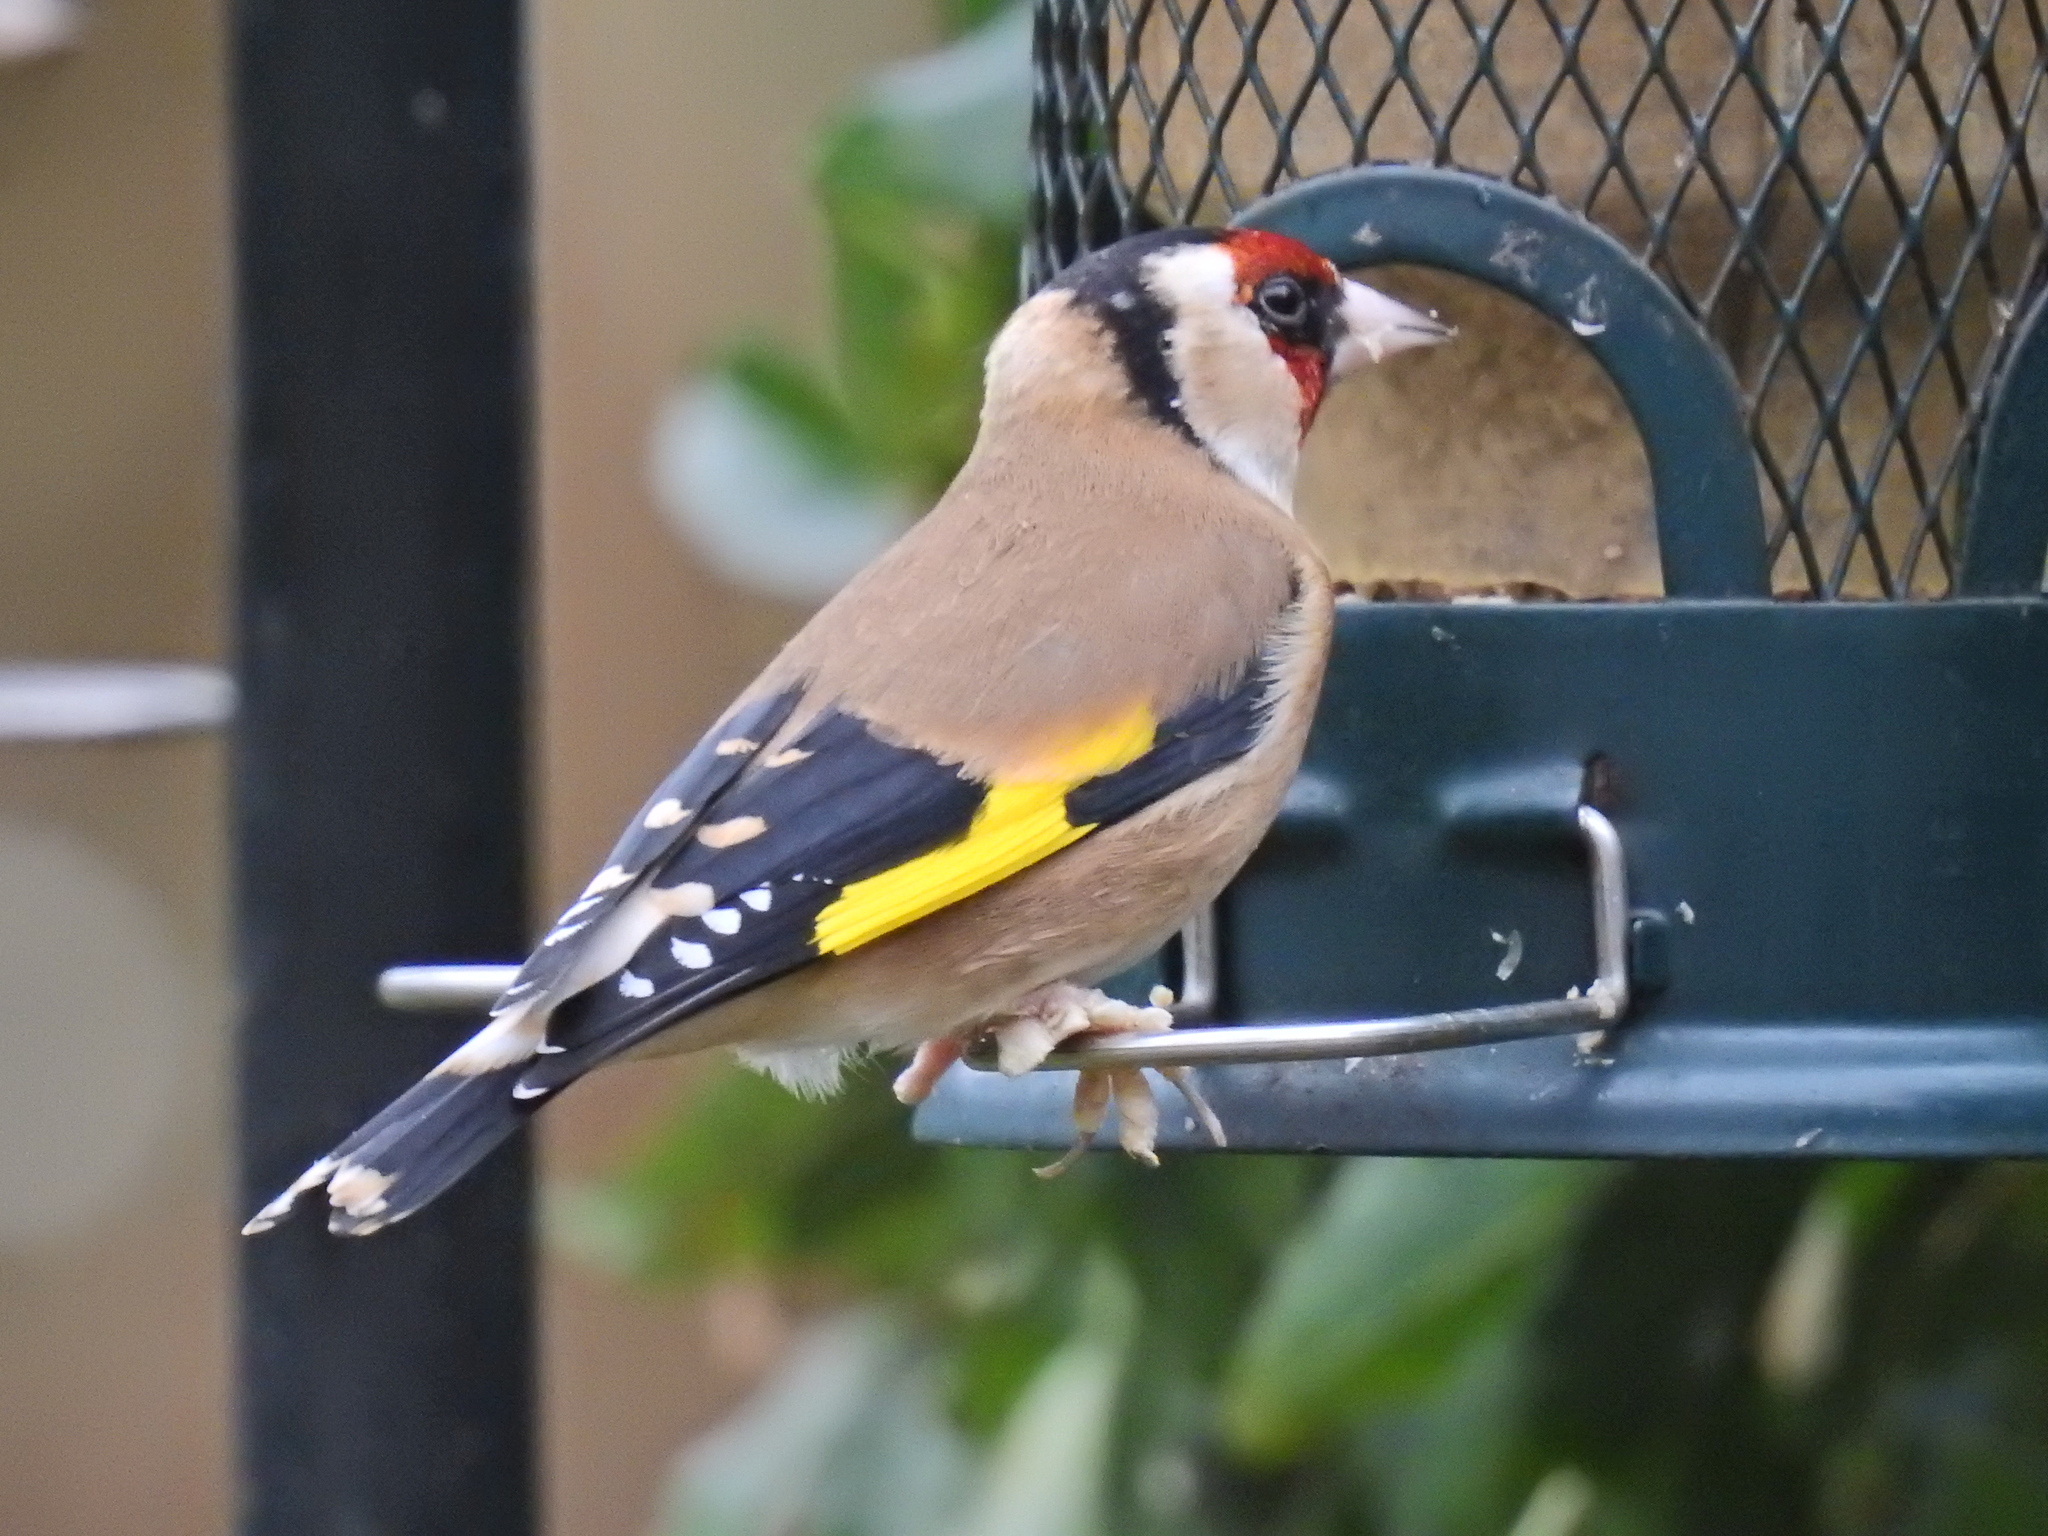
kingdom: Animalia
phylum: Chordata
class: Aves
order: Passeriformes
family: Fringillidae
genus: Carduelis
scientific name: Carduelis carduelis
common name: European goldfinch
